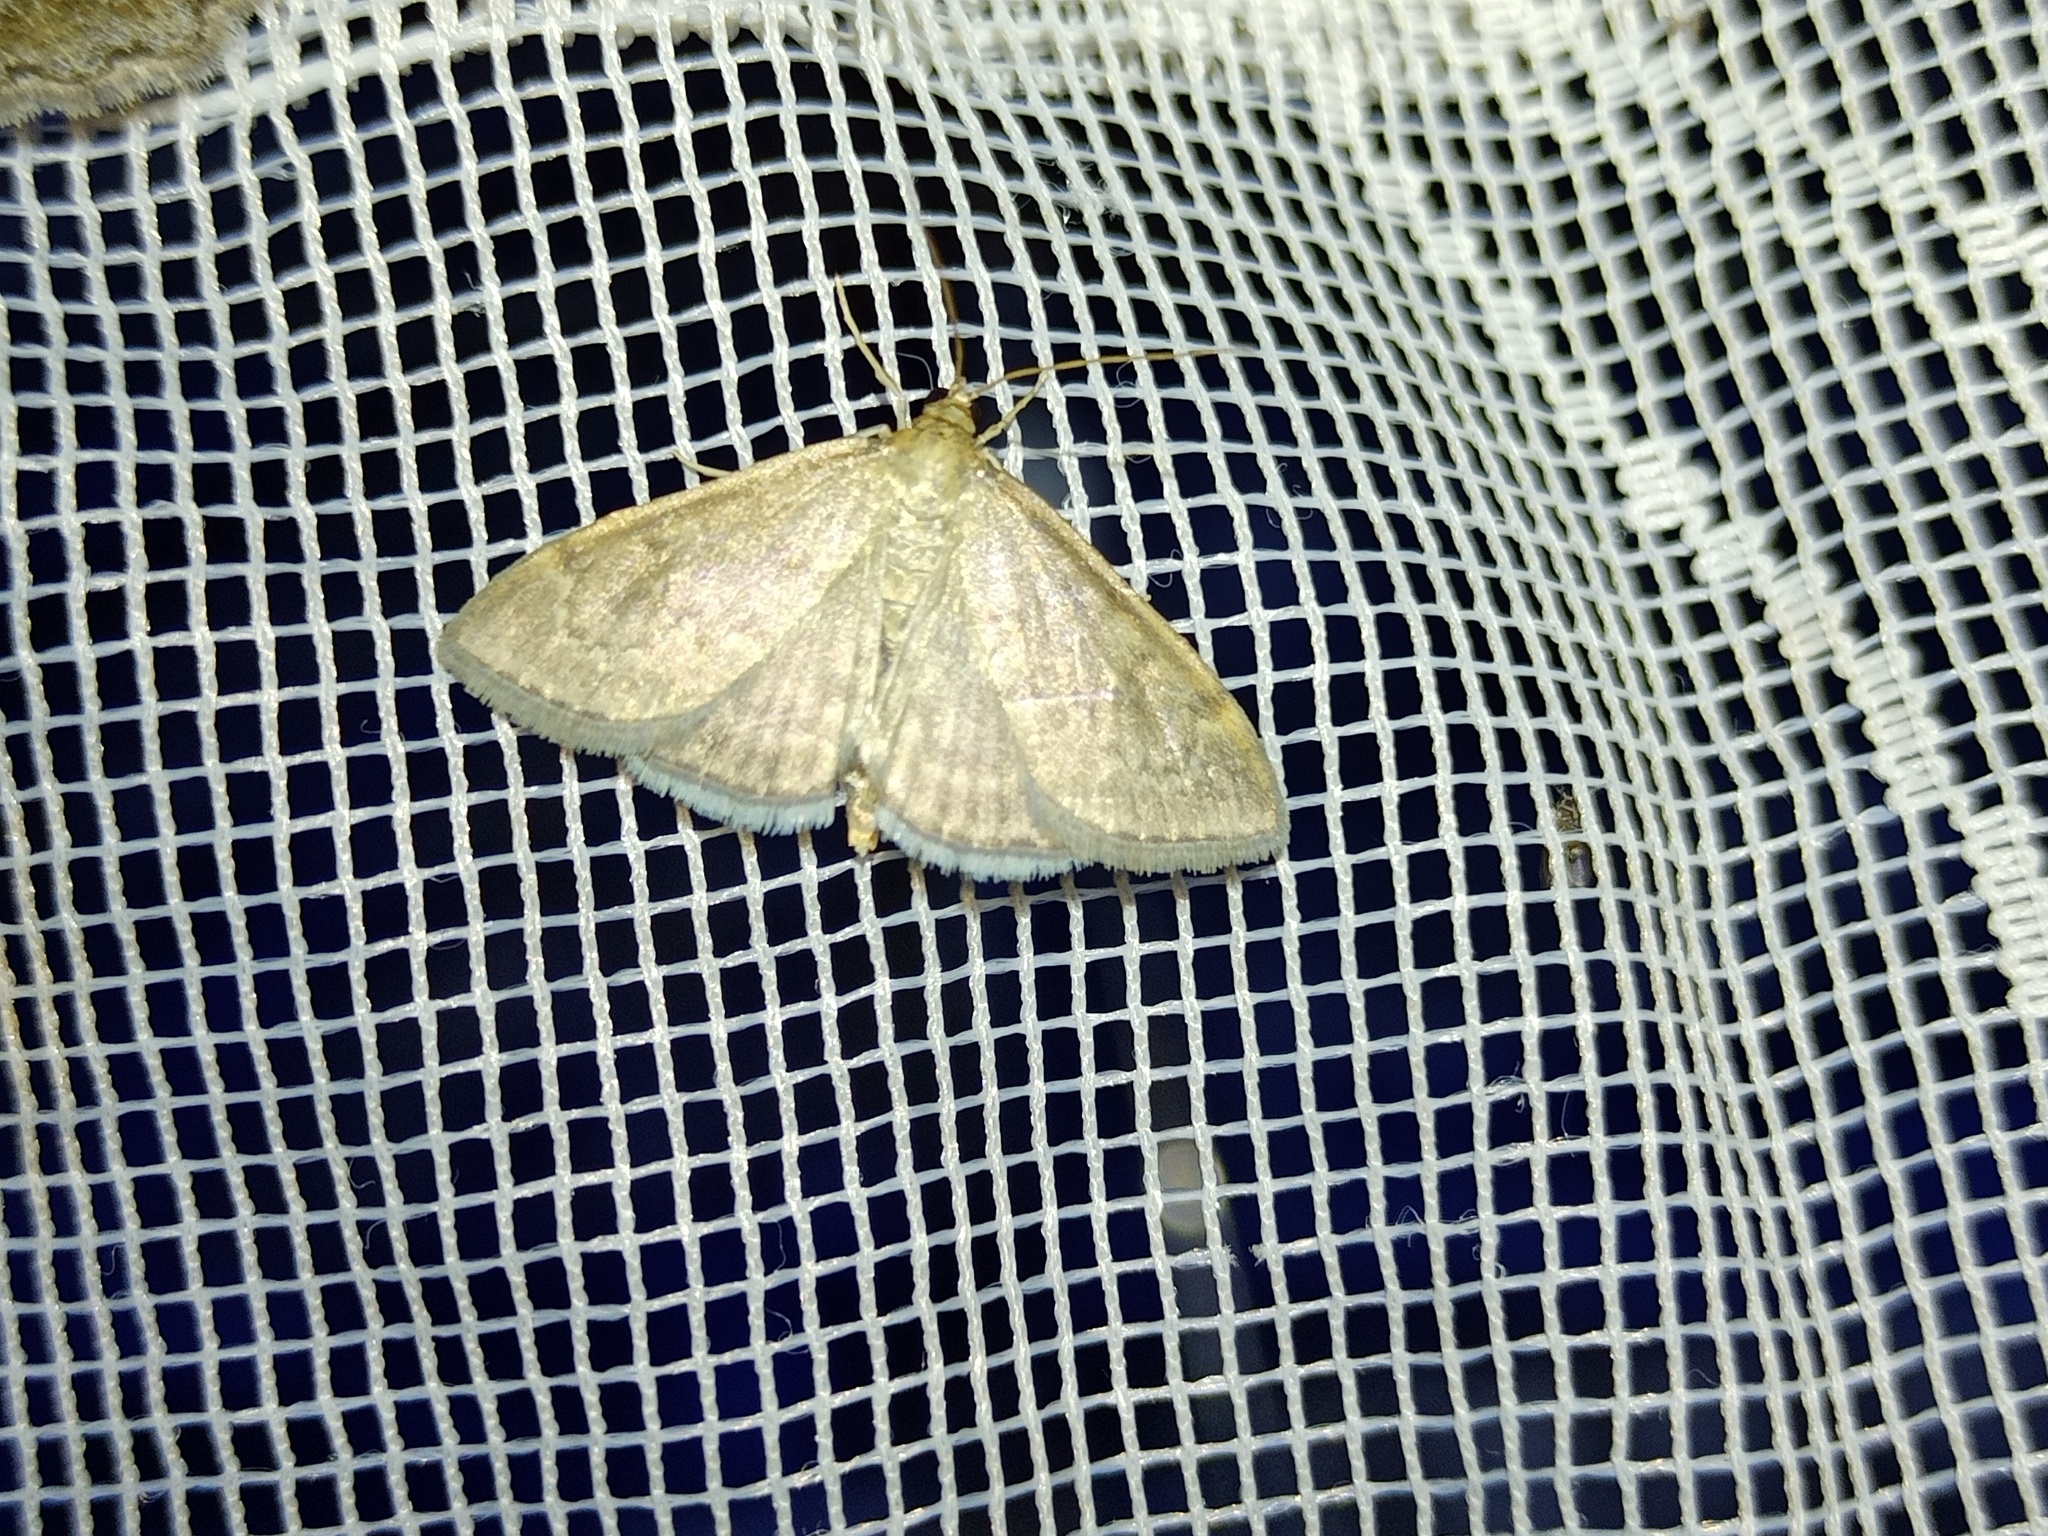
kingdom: Animalia
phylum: Arthropoda
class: Insecta
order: Lepidoptera
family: Crambidae
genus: Anania
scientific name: Anania fuscalis
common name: Cinerous pearl
